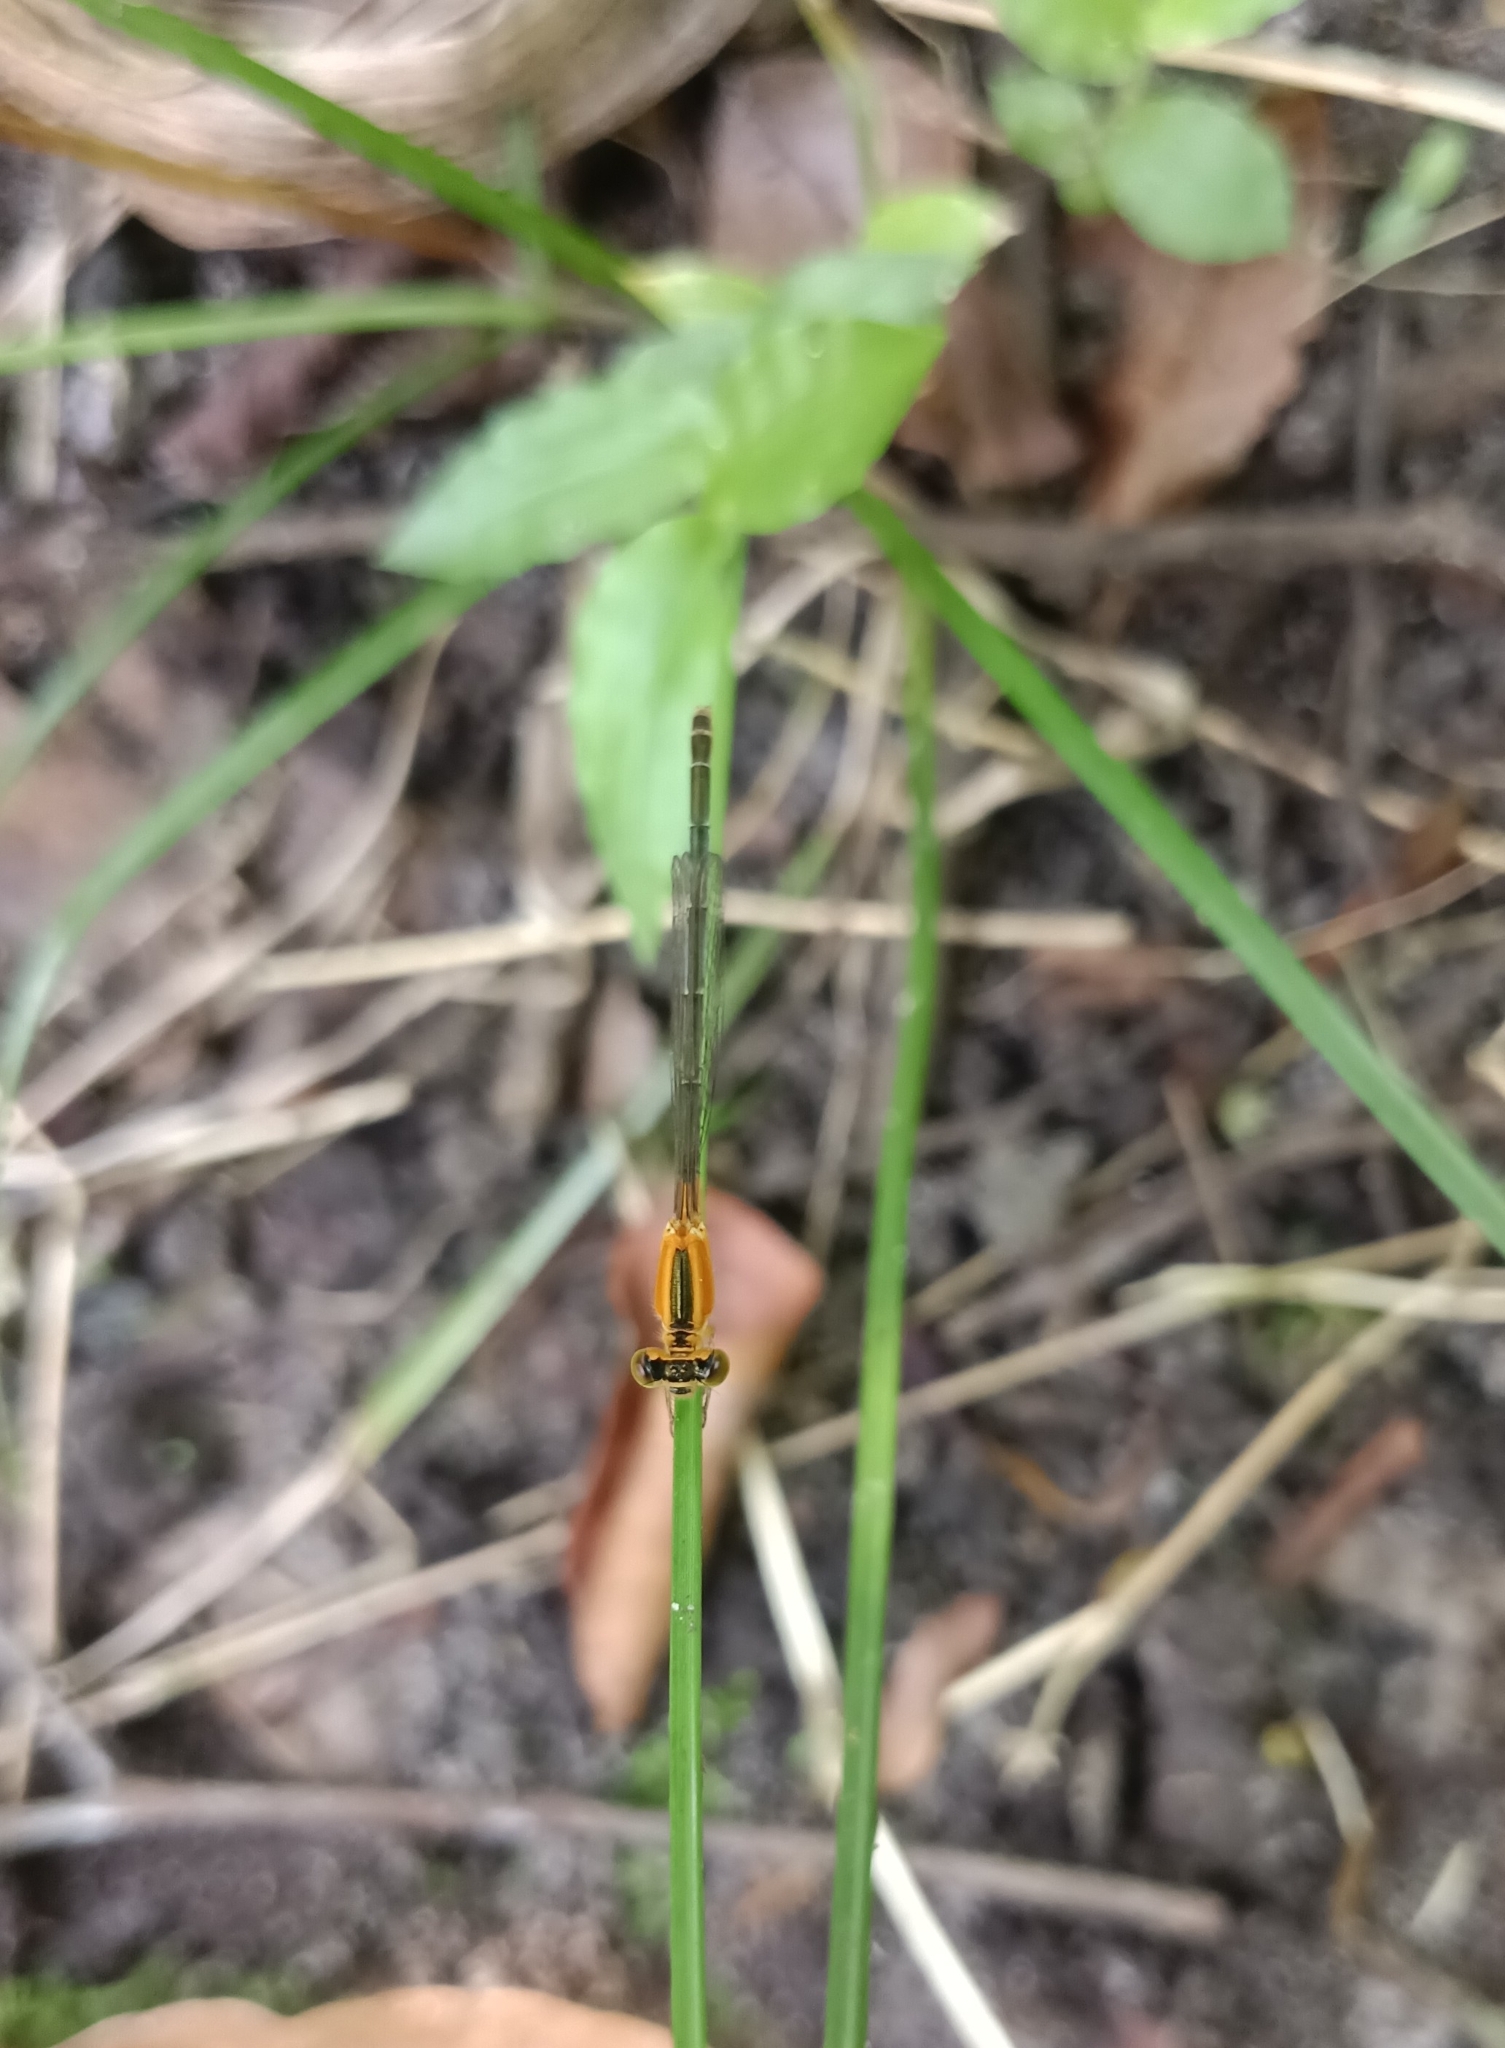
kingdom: Animalia
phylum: Arthropoda
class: Insecta
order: Odonata
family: Coenagrionidae
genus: Ischnura
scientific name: Ischnura senegalensis
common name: Tropical bluetail
